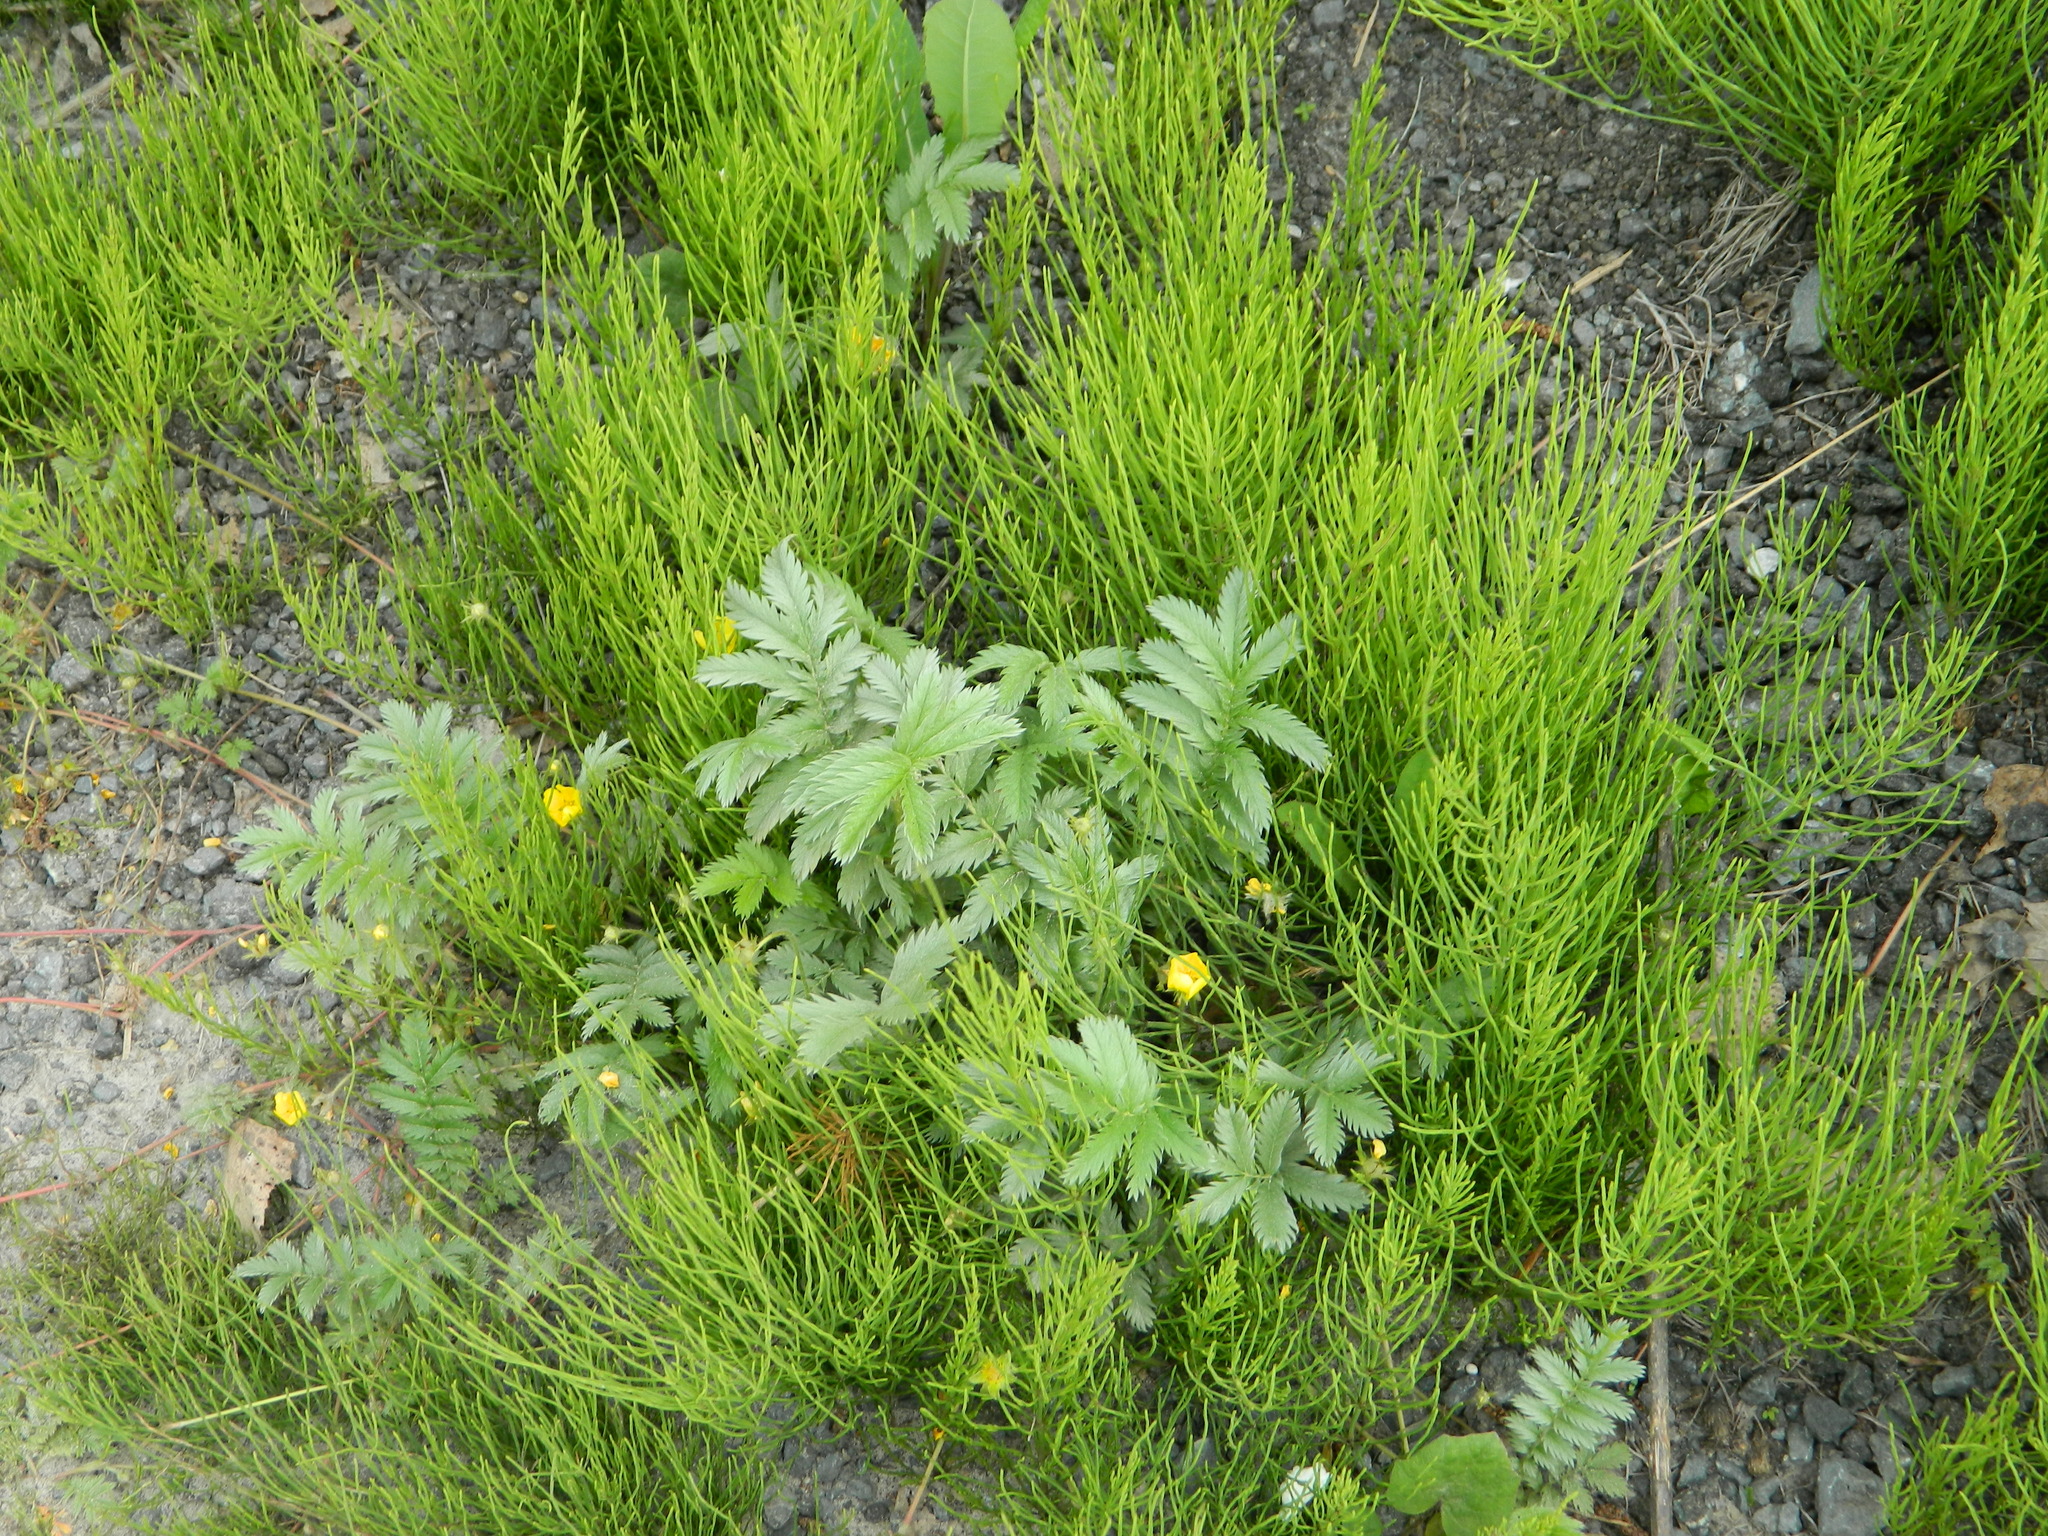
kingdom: Plantae
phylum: Tracheophyta
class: Magnoliopsida
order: Rosales
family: Rosaceae
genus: Argentina
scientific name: Argentina anserina
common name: Common silverweed
